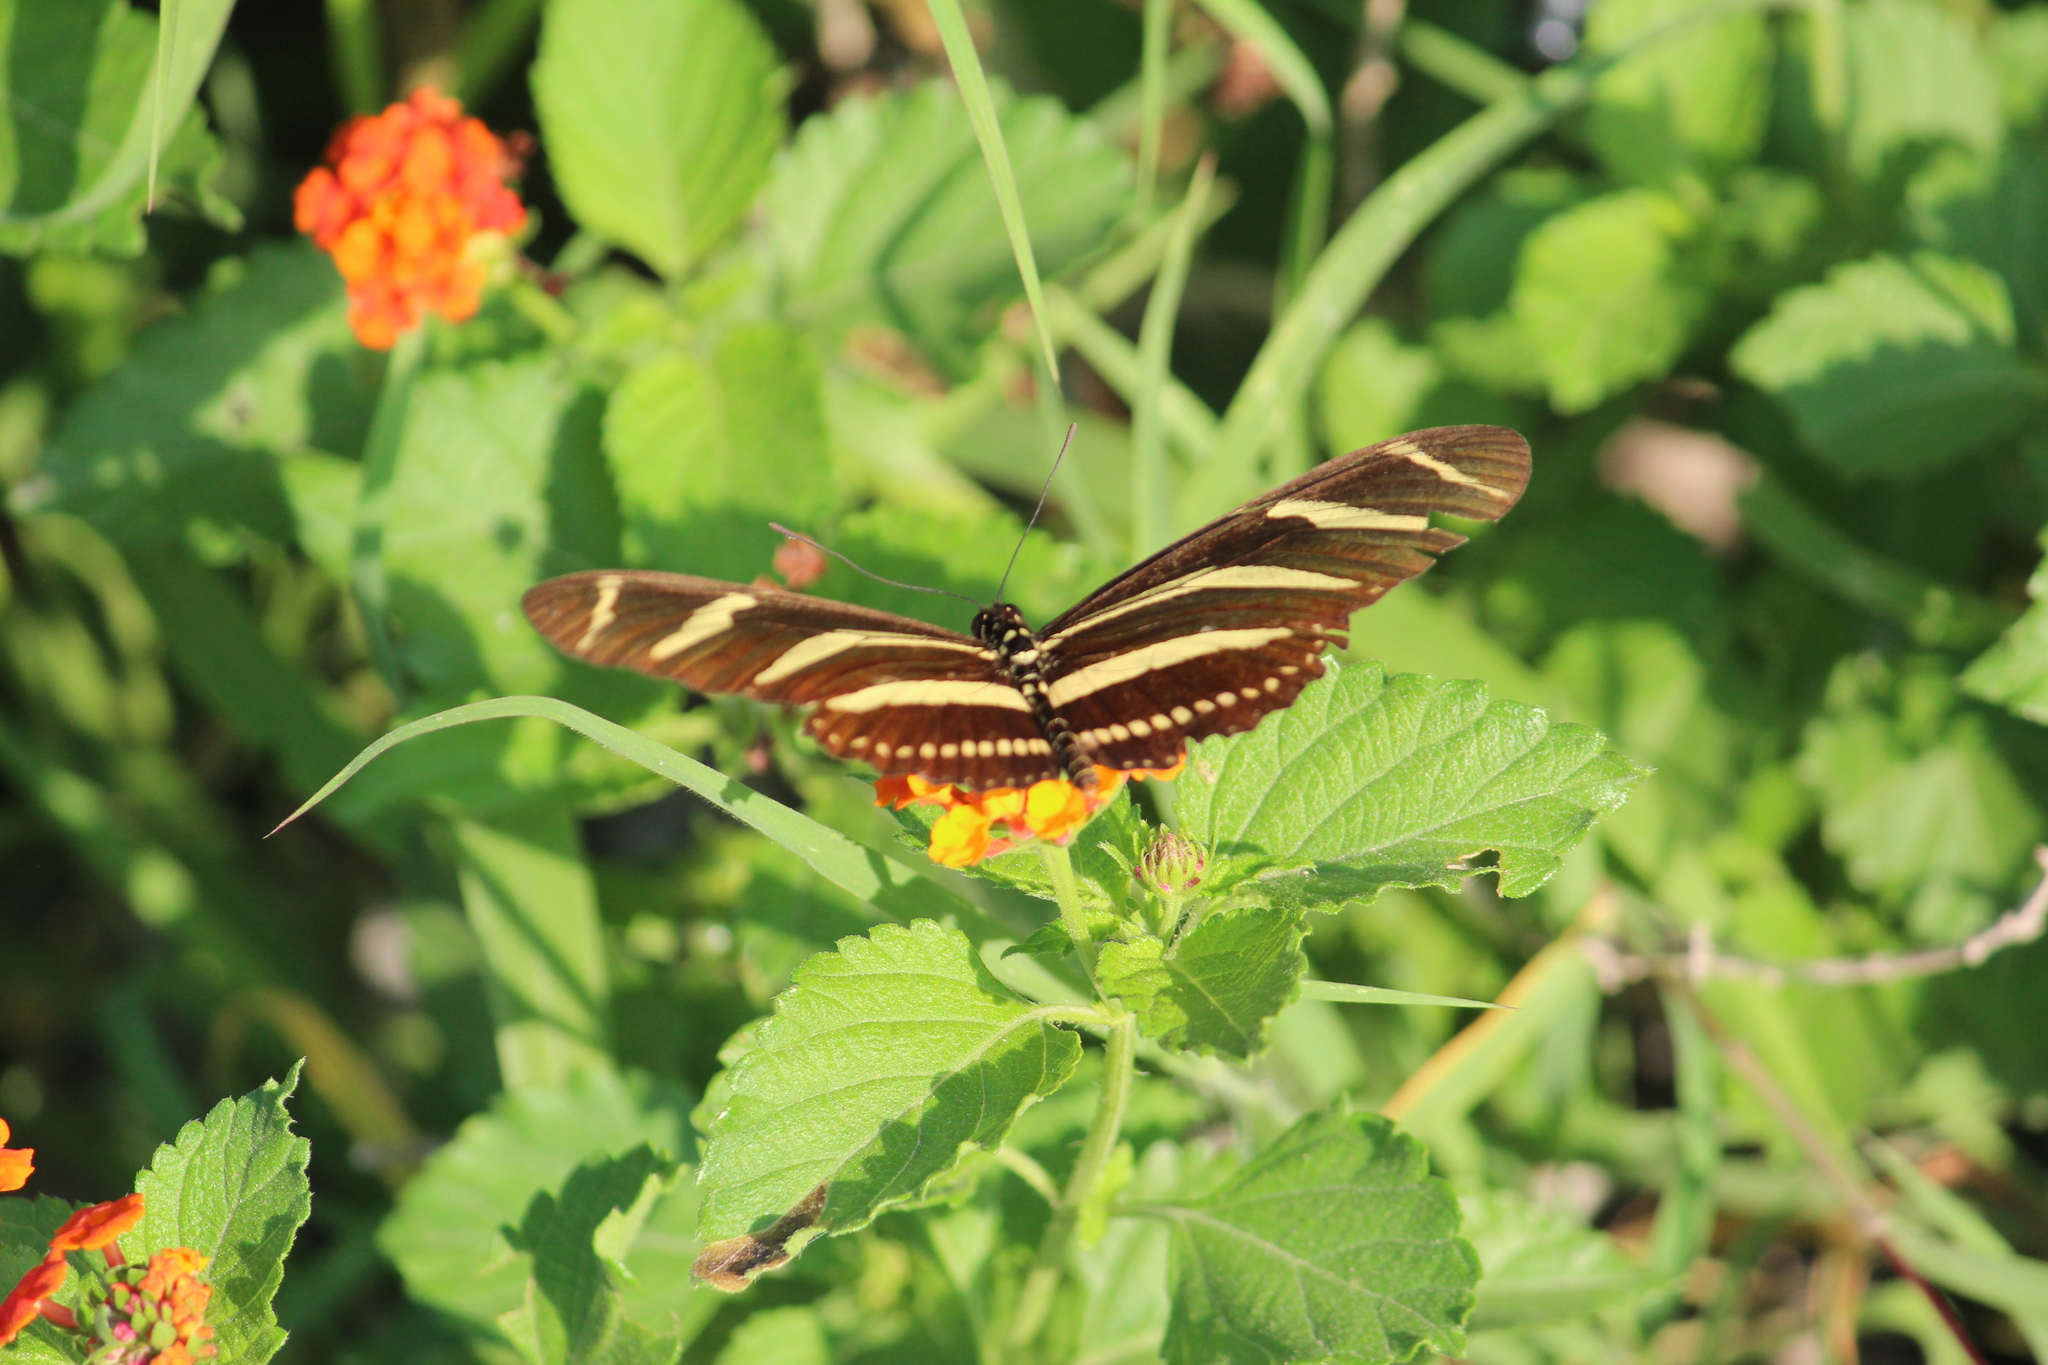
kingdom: Animalia
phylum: Arthropoda
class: Insecta
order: Lepidoptera
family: Nymphalidae
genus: Heliconius
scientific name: Heliconius charithonia
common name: Zebra long wing
